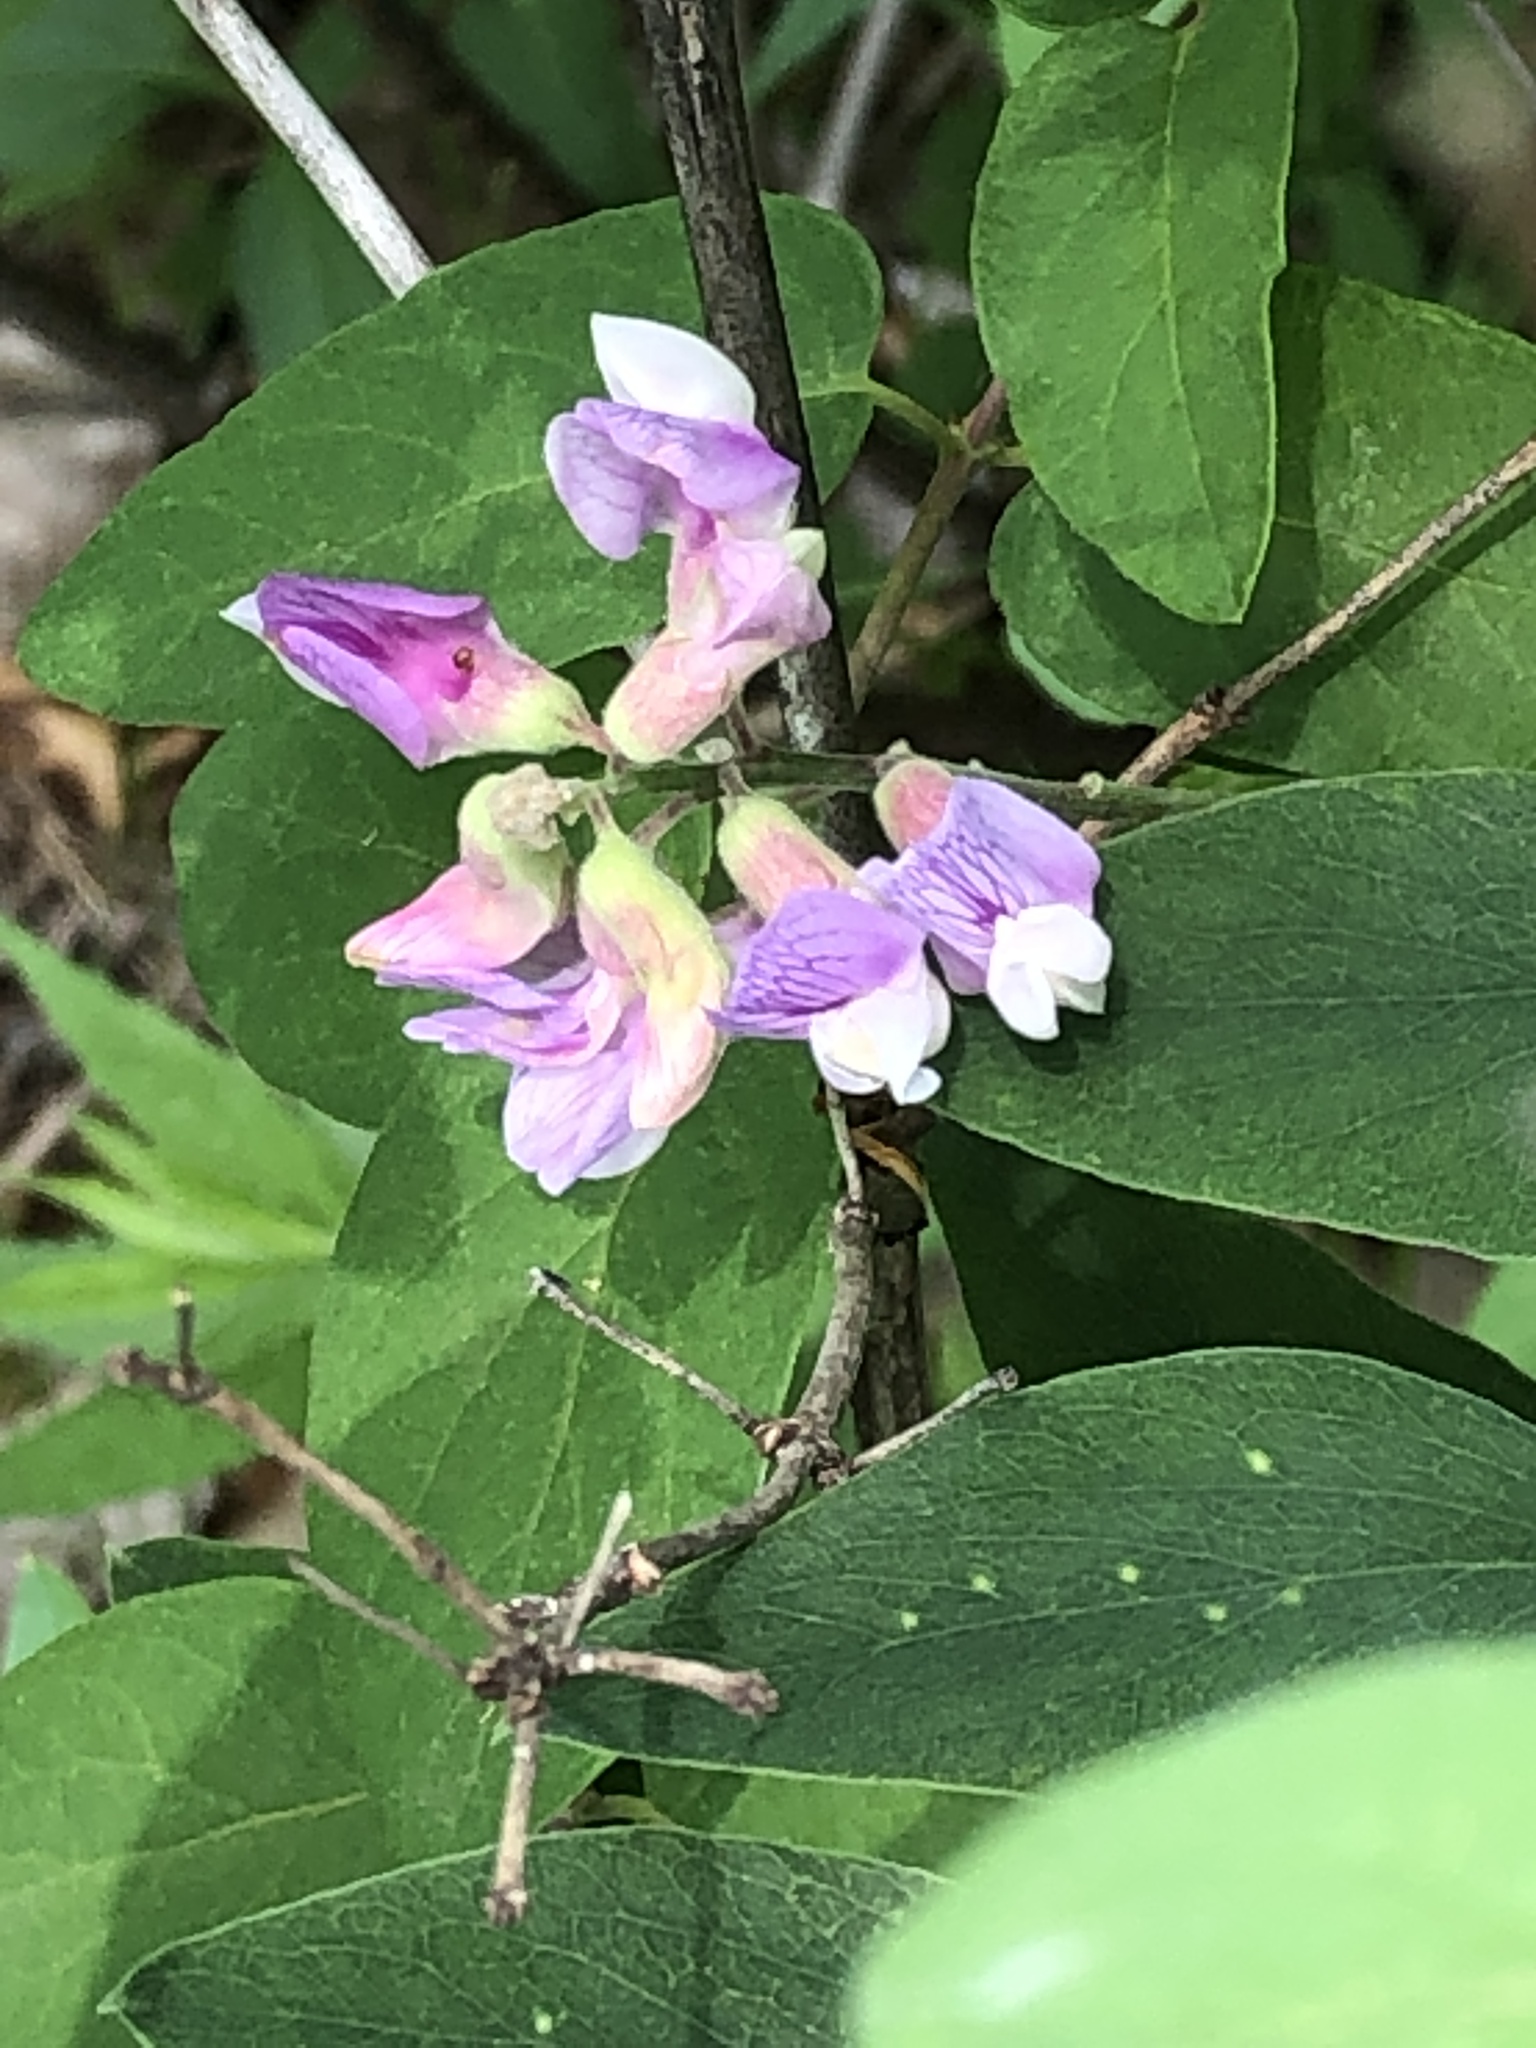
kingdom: Plantae
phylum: Tracheophyta
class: Magnoliopsida
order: Fabales
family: Fabaceae
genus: Lathyrus
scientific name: Lathyrus venosus
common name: Forest-pea
